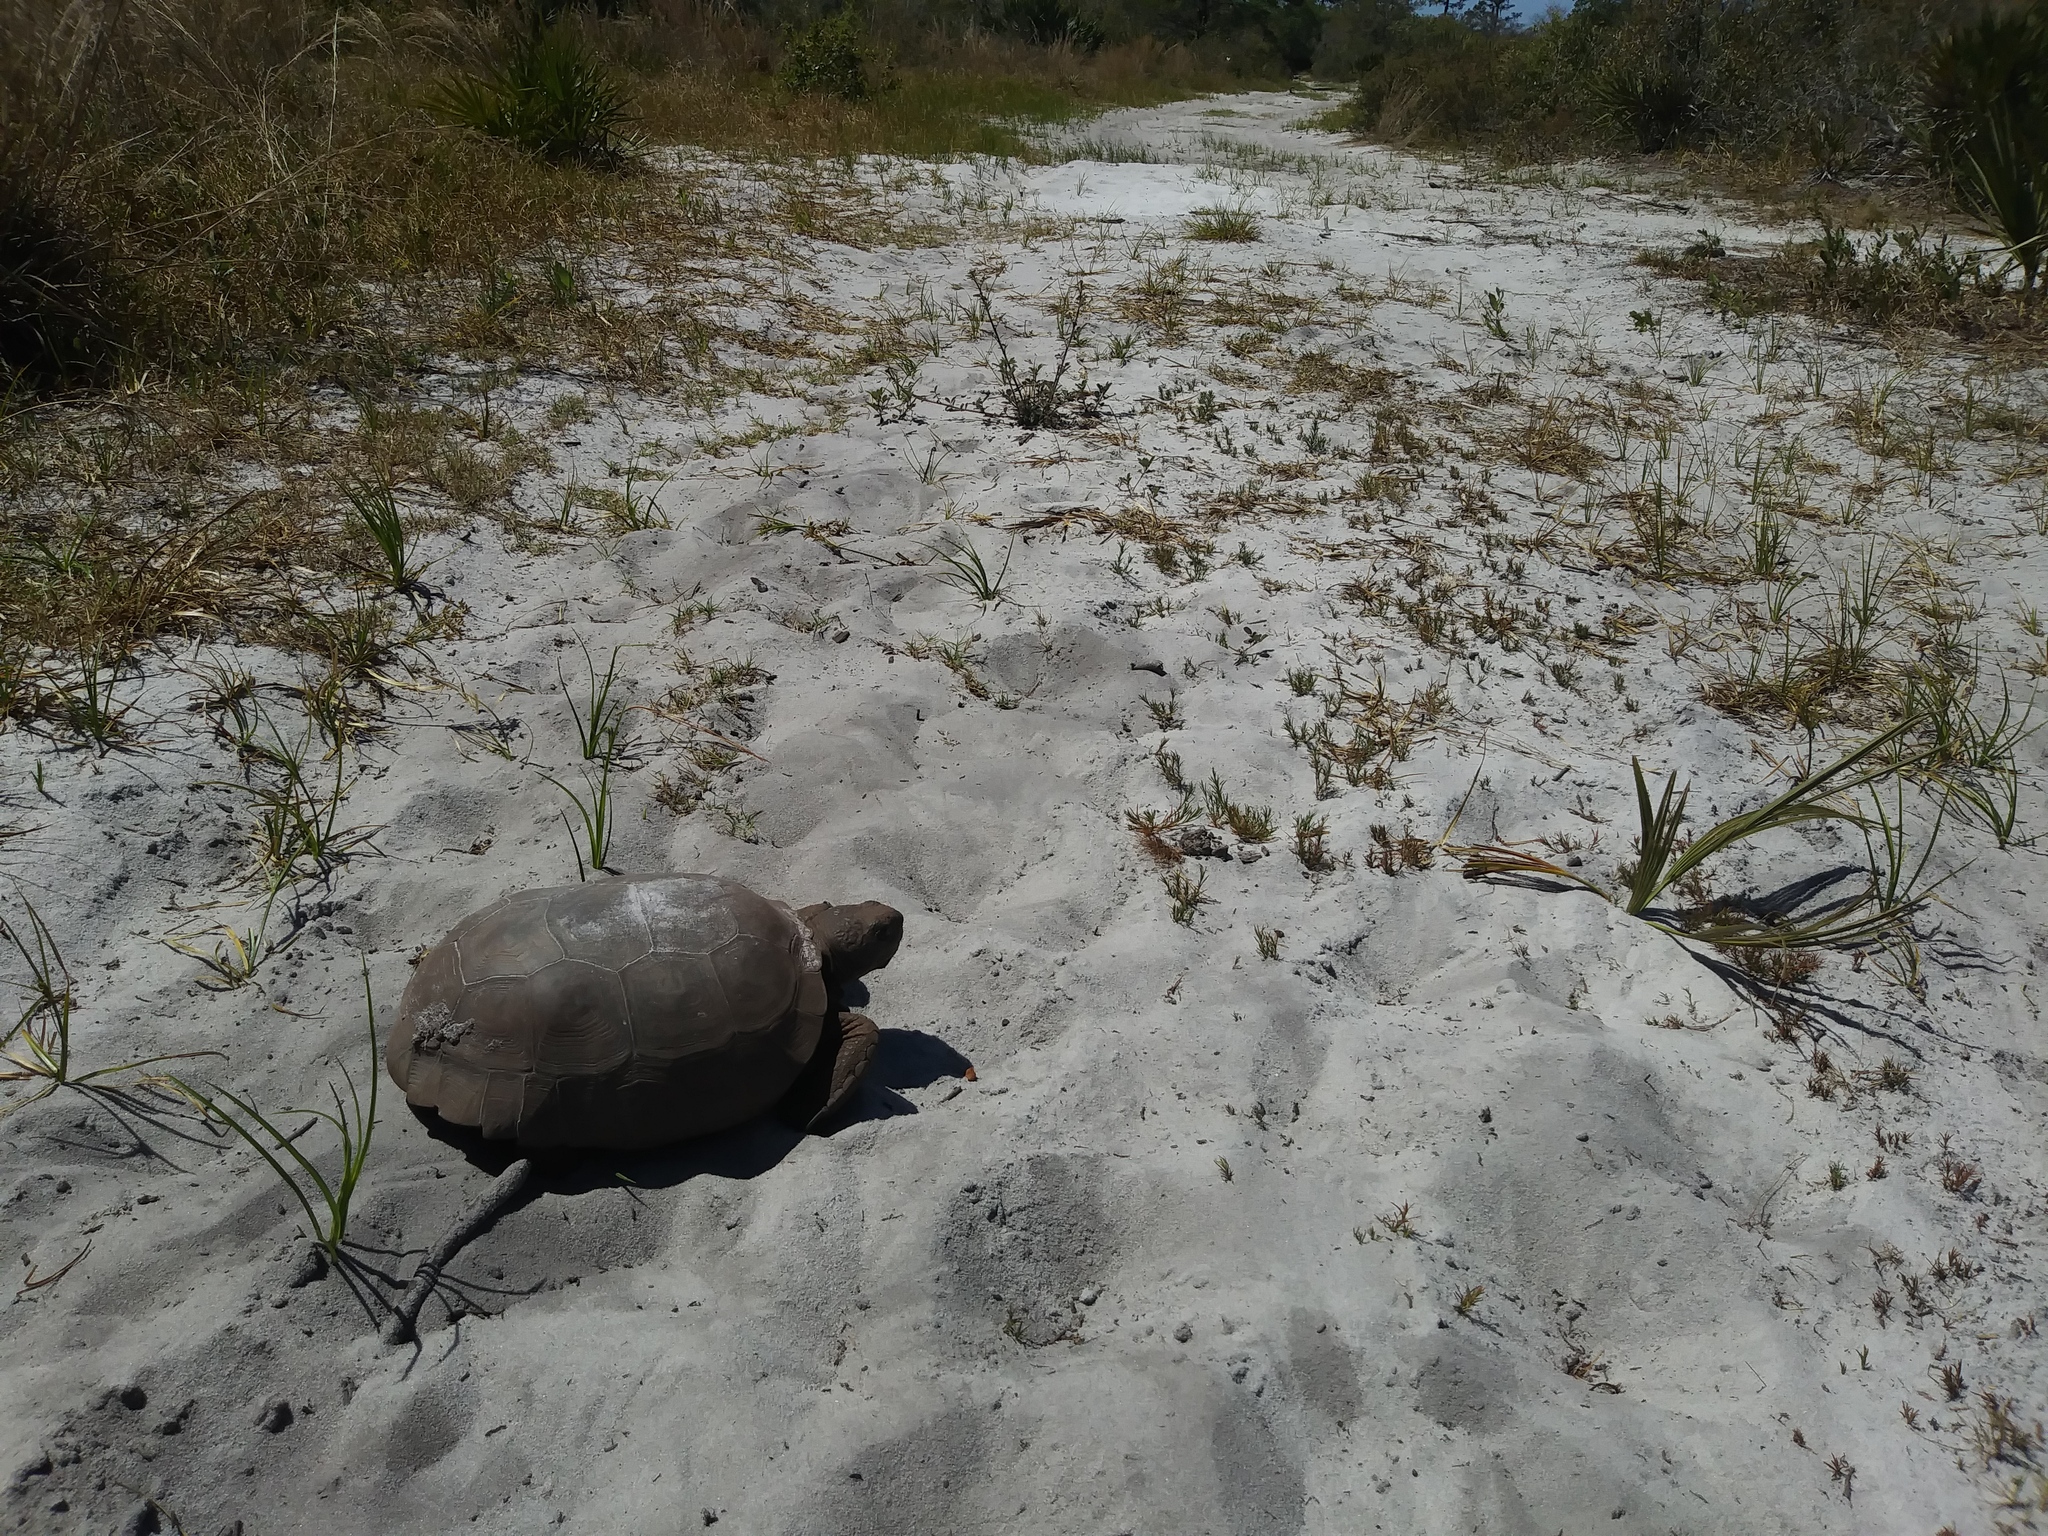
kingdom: Animalia
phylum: Chordata
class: Testudines
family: Testudinidae
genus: Gopherus
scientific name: Gopherus polyphemus
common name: Florida gopher tortoise
